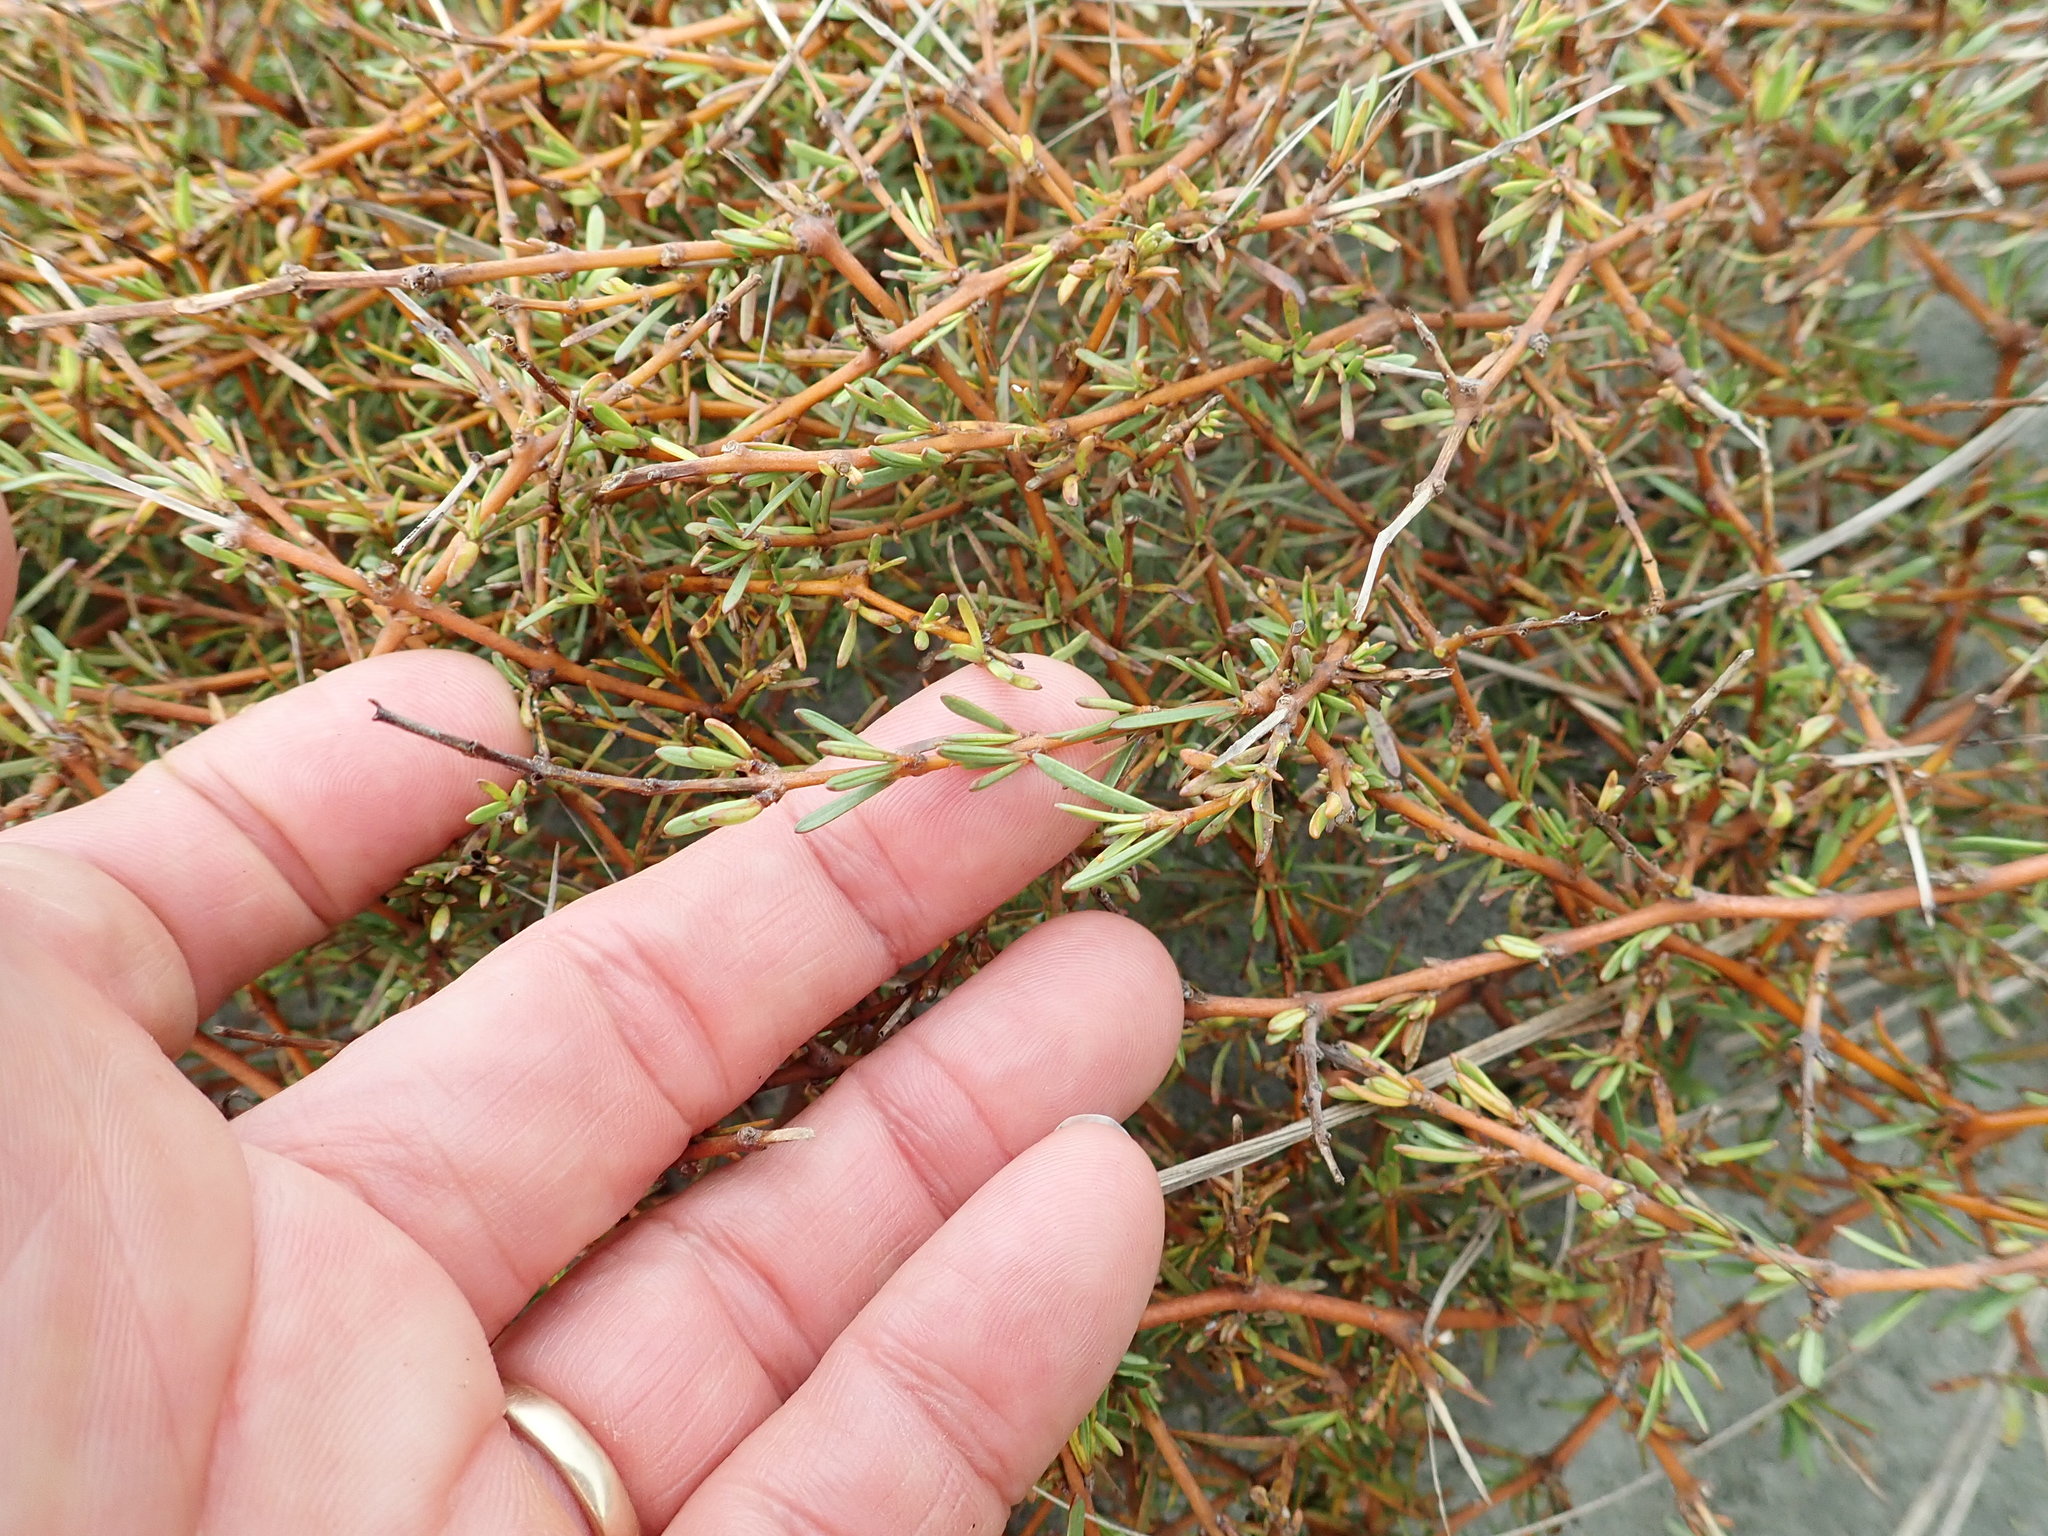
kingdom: Plantae
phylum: Tracheophyta
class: Magnoliopsida
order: Gentianales
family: Rubiaceae
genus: Coprosma
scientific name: Coprosma acerosa
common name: Sand coprosma
